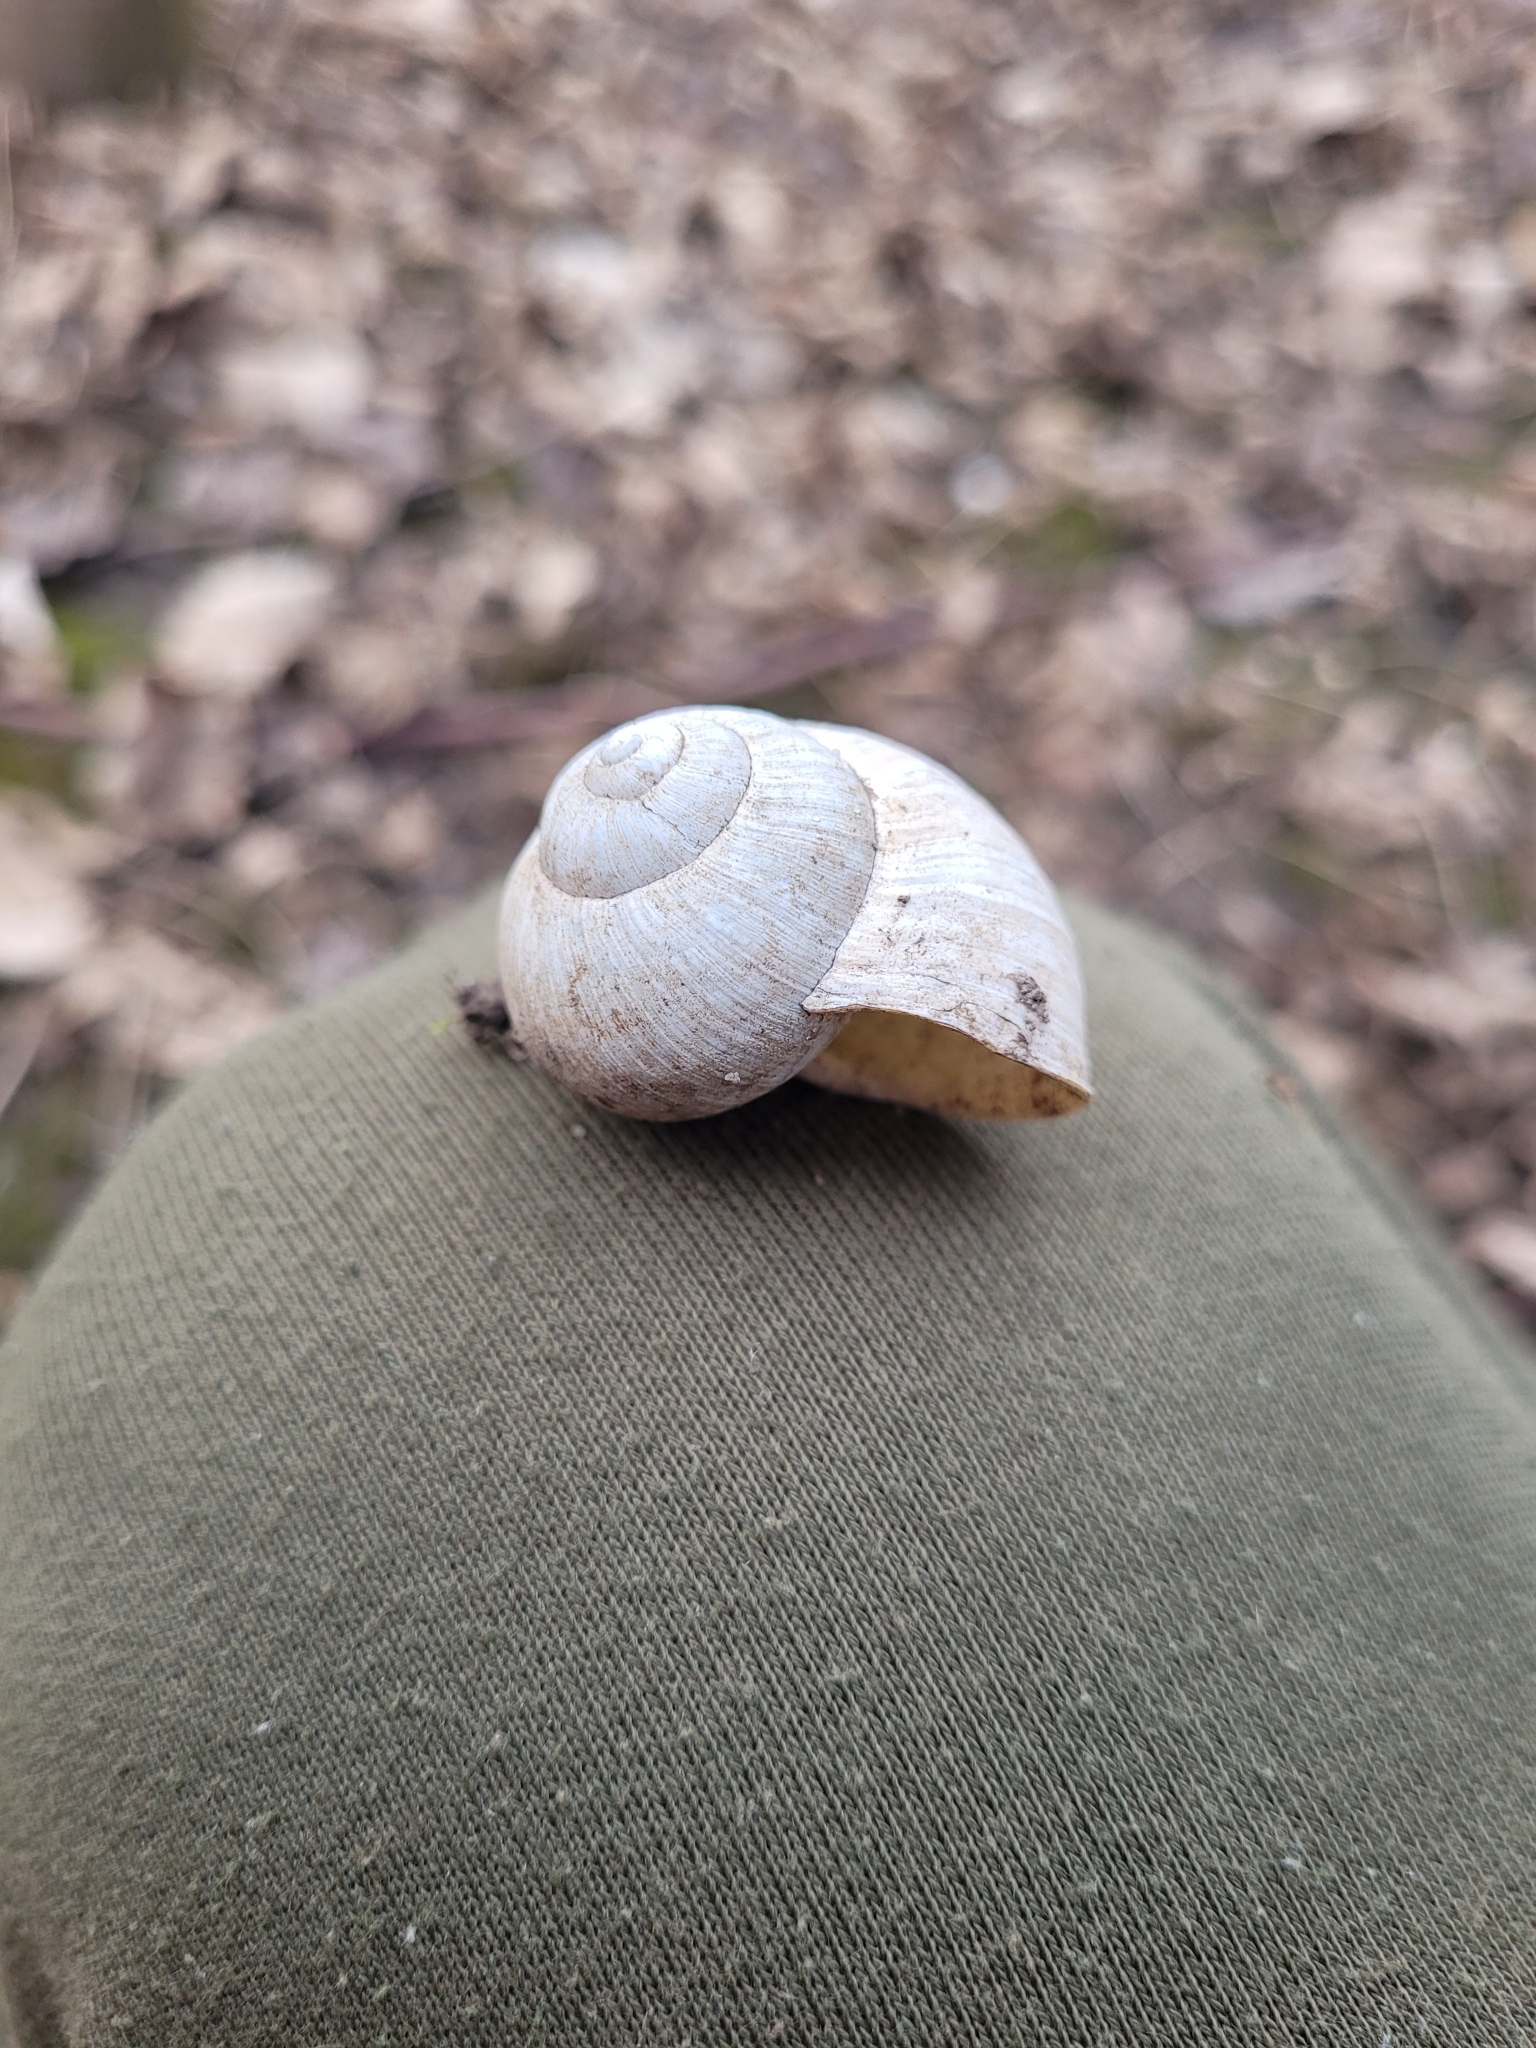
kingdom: Animalia
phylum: Mollusca
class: Gastropoda
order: Stylommatophora
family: Helicidae
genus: Helix
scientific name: Helix pomatia
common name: Roman snail
